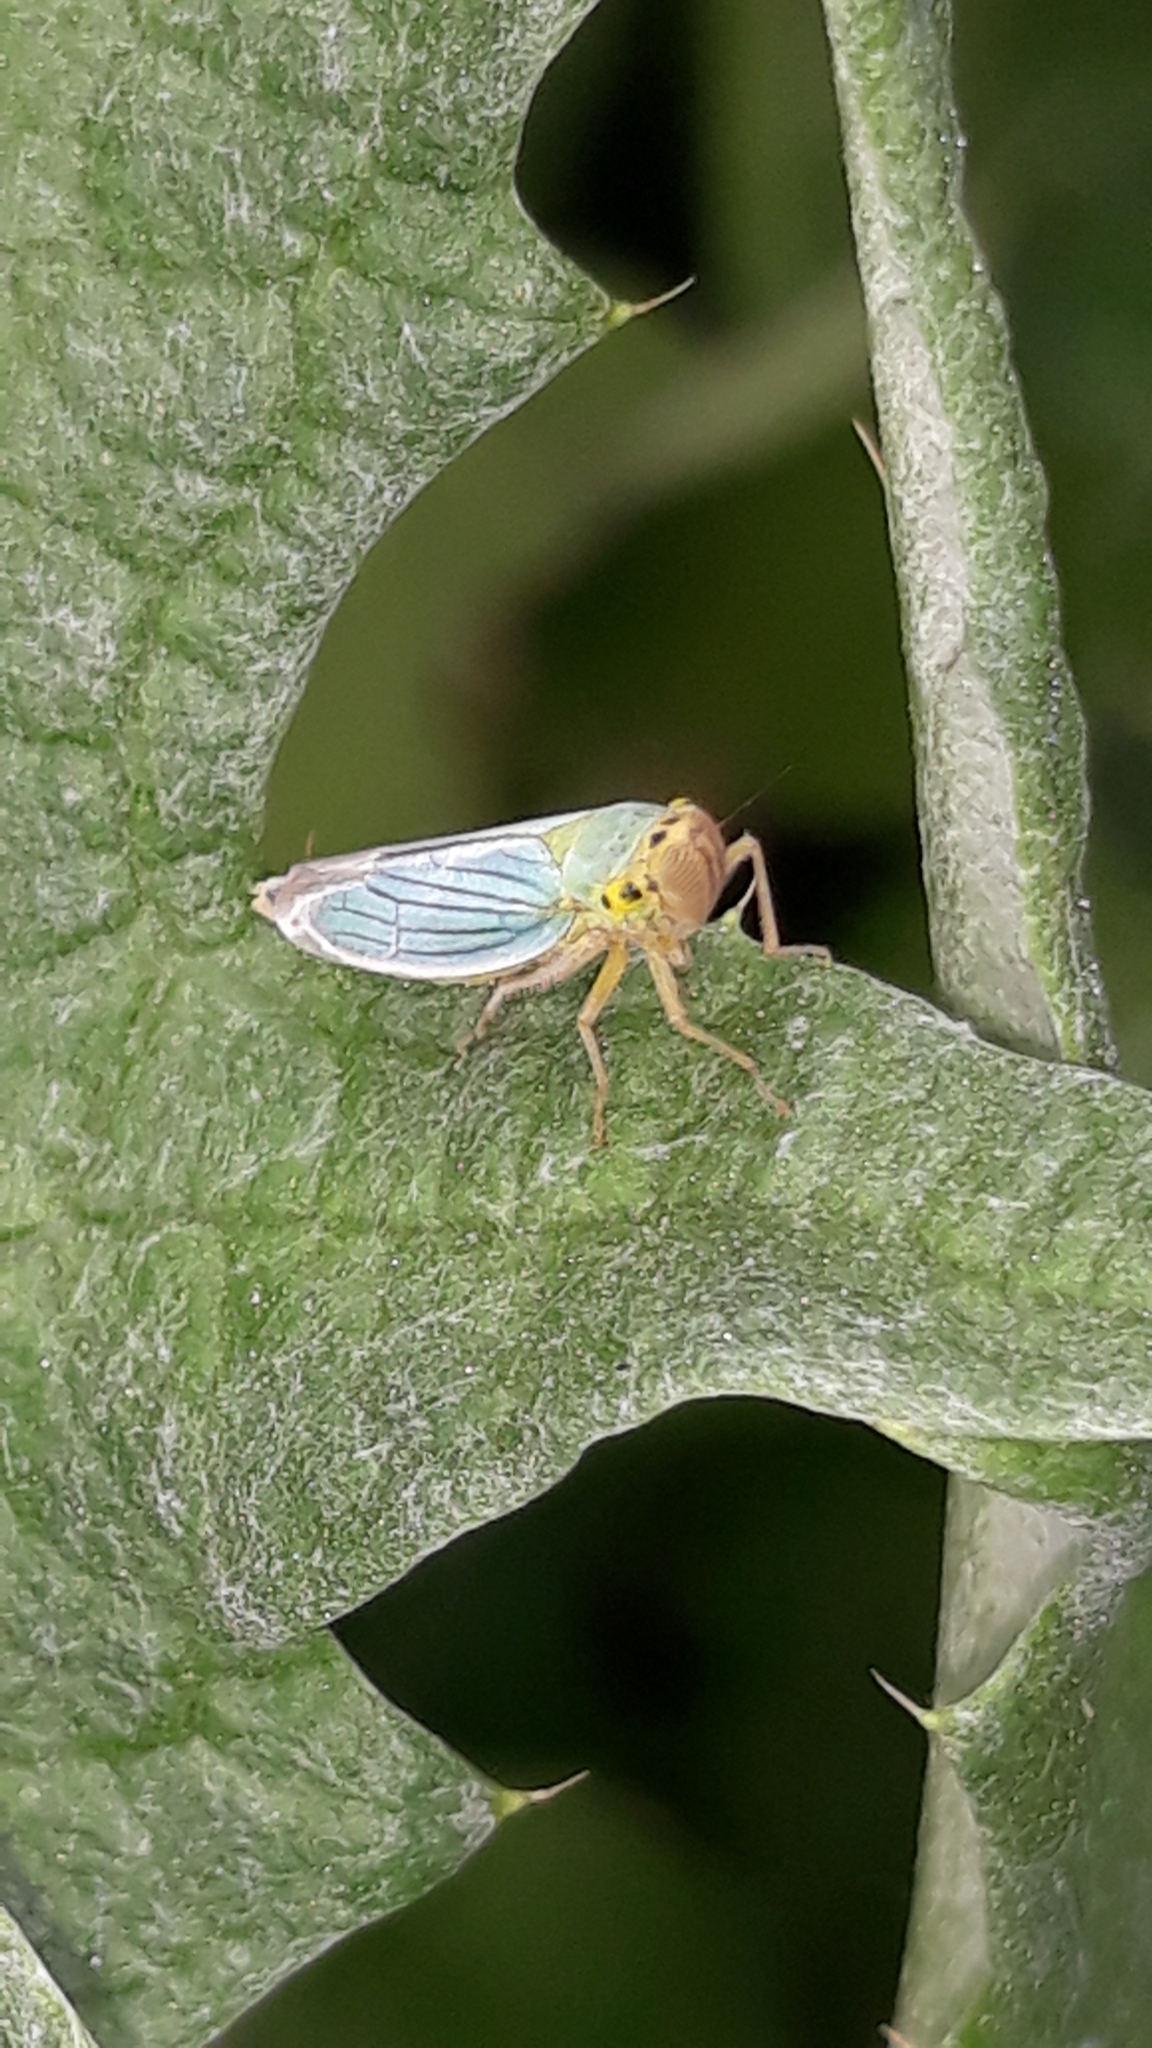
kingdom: Animalia
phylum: Arthropoda
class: Insecta
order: Hemiptera
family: Cicadellidae
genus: Cicadella
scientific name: Cicadella viridis
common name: Leafhopper
